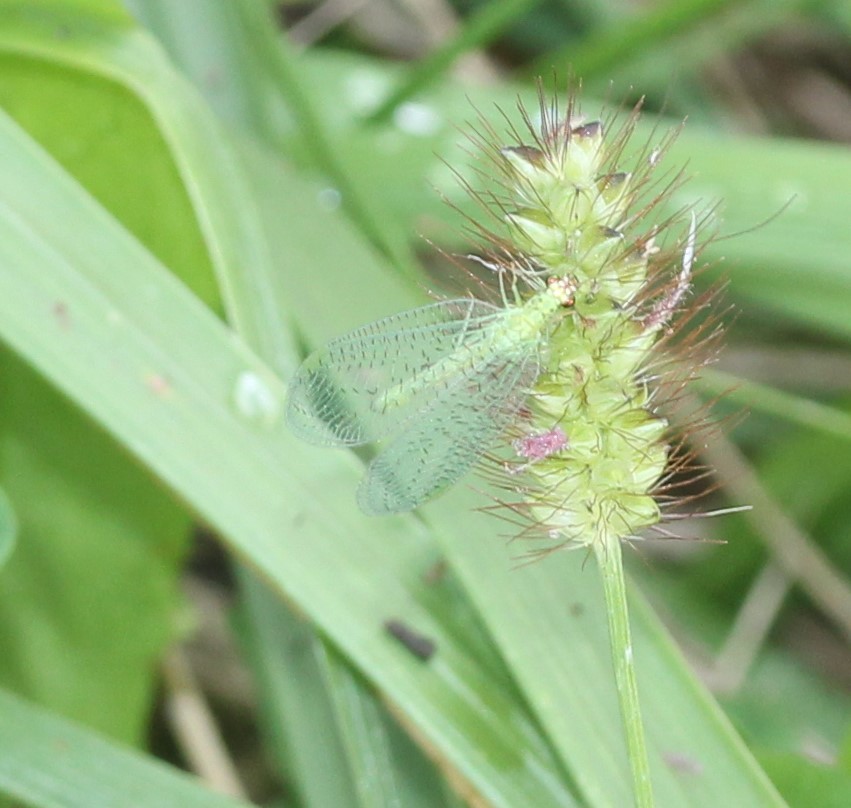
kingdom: Animalia
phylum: Arthropoda
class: Insecta
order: Neuroptera
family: Chrysopidae
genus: Chrysopa
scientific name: Chrysopa oculata
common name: Golden-eyed lacewing
